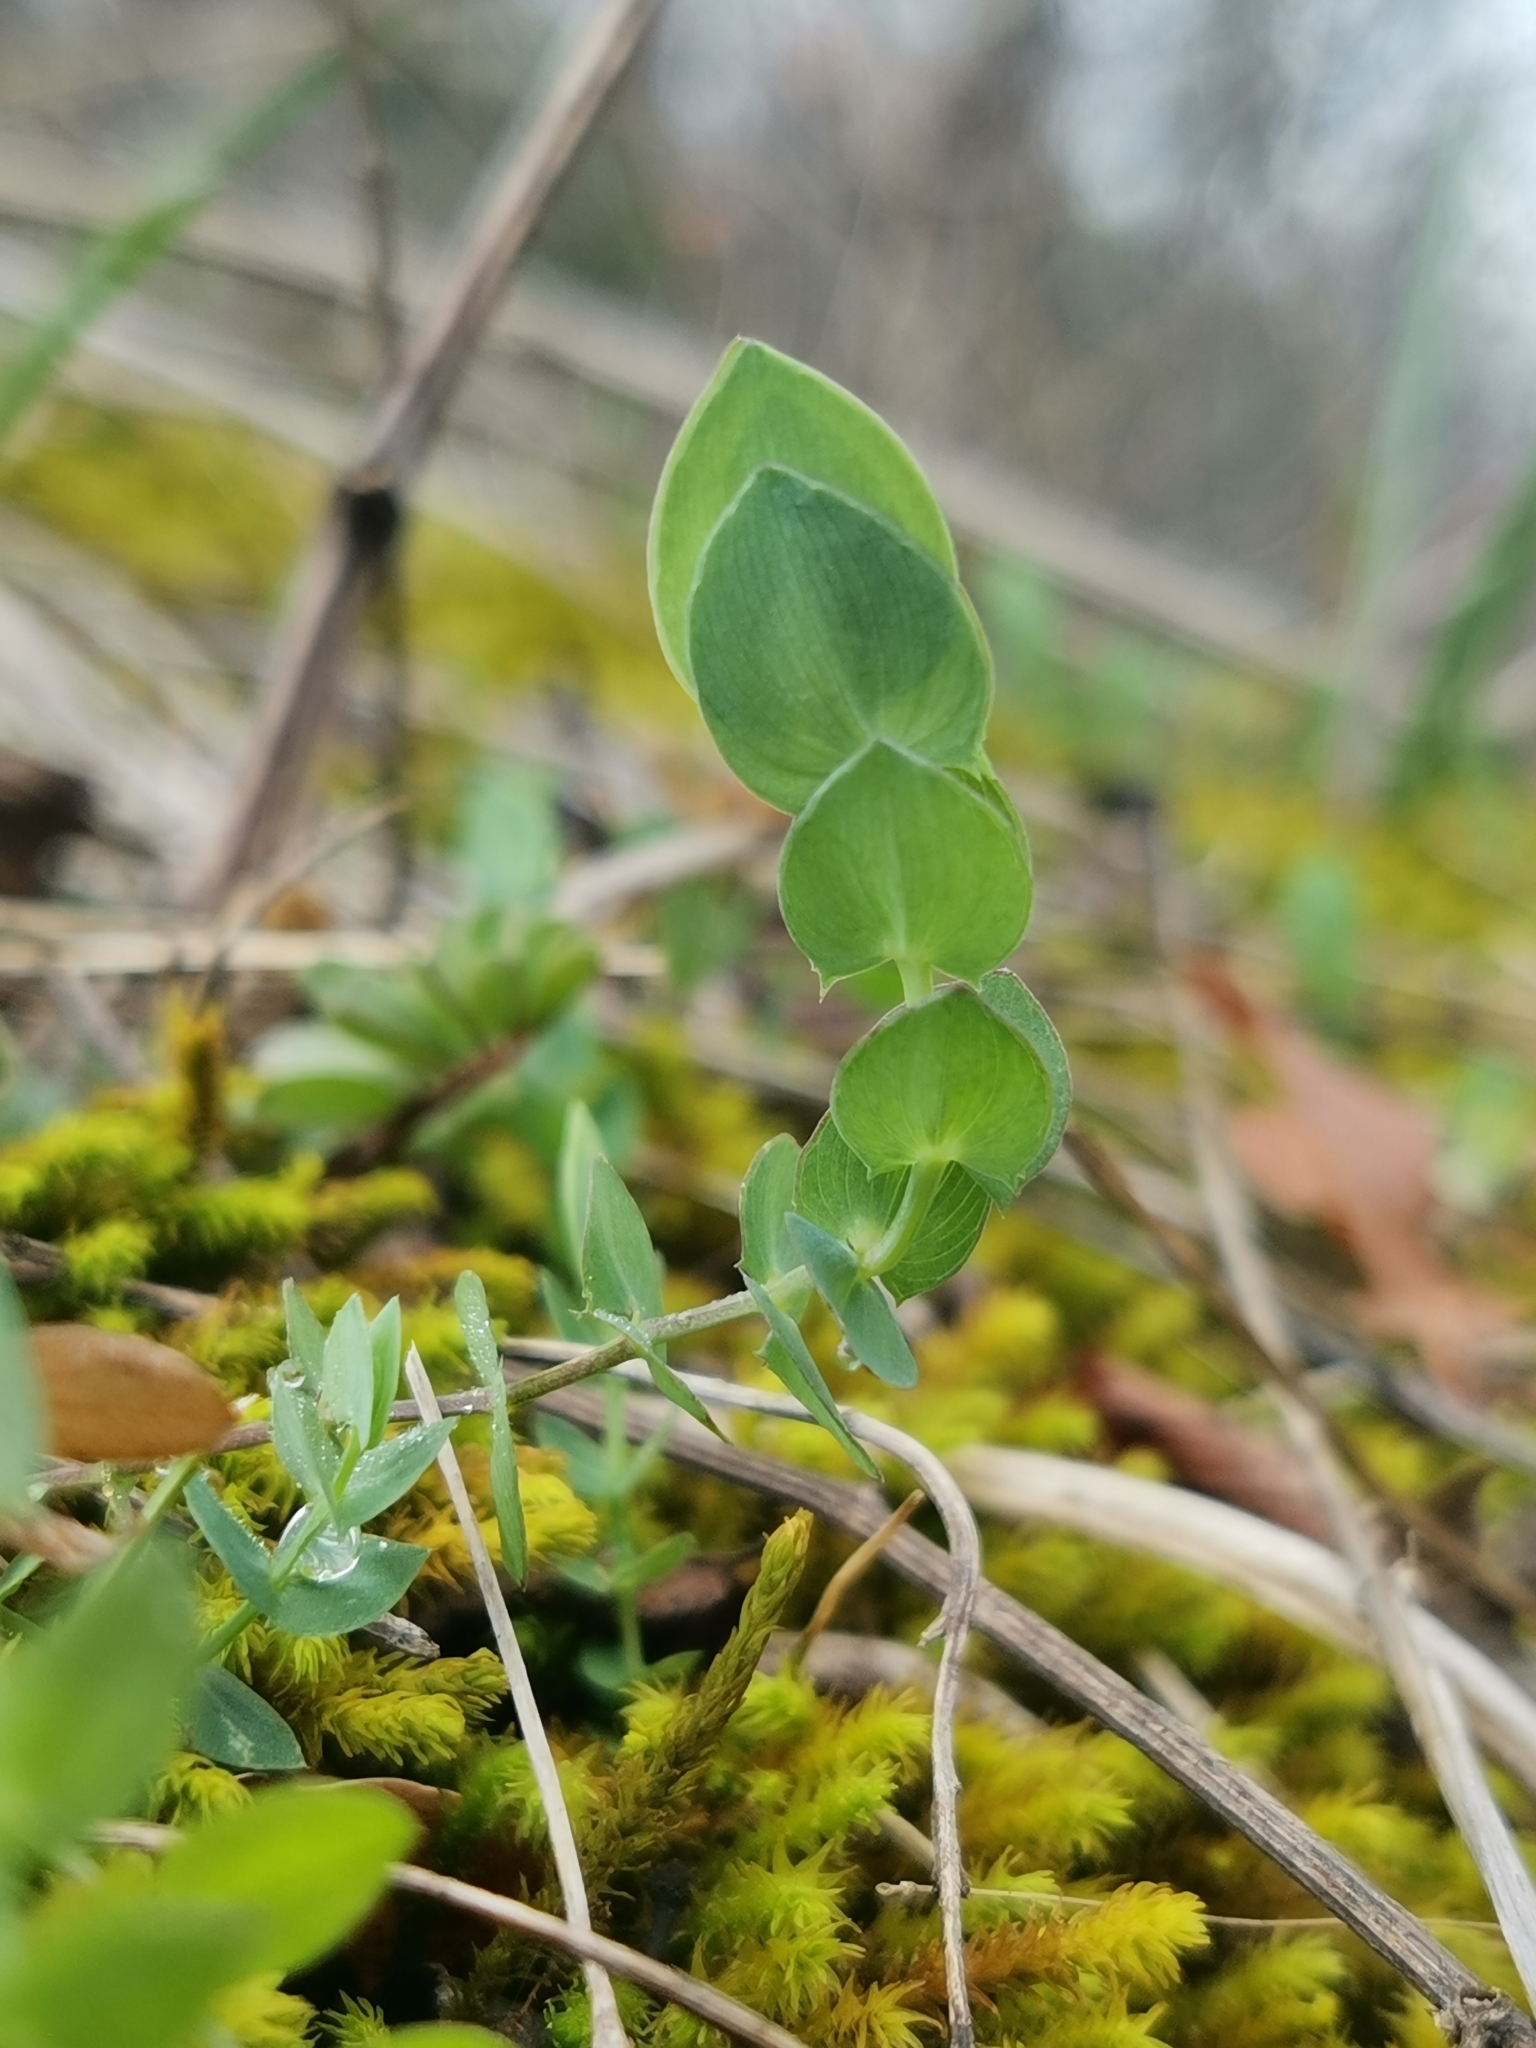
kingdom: Plantae
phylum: Tracheophyta
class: Magnoliopsida
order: Fabales
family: Fabaceae
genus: Lathyrus
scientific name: Lathyrus aphaca
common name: Yellow vetchling
